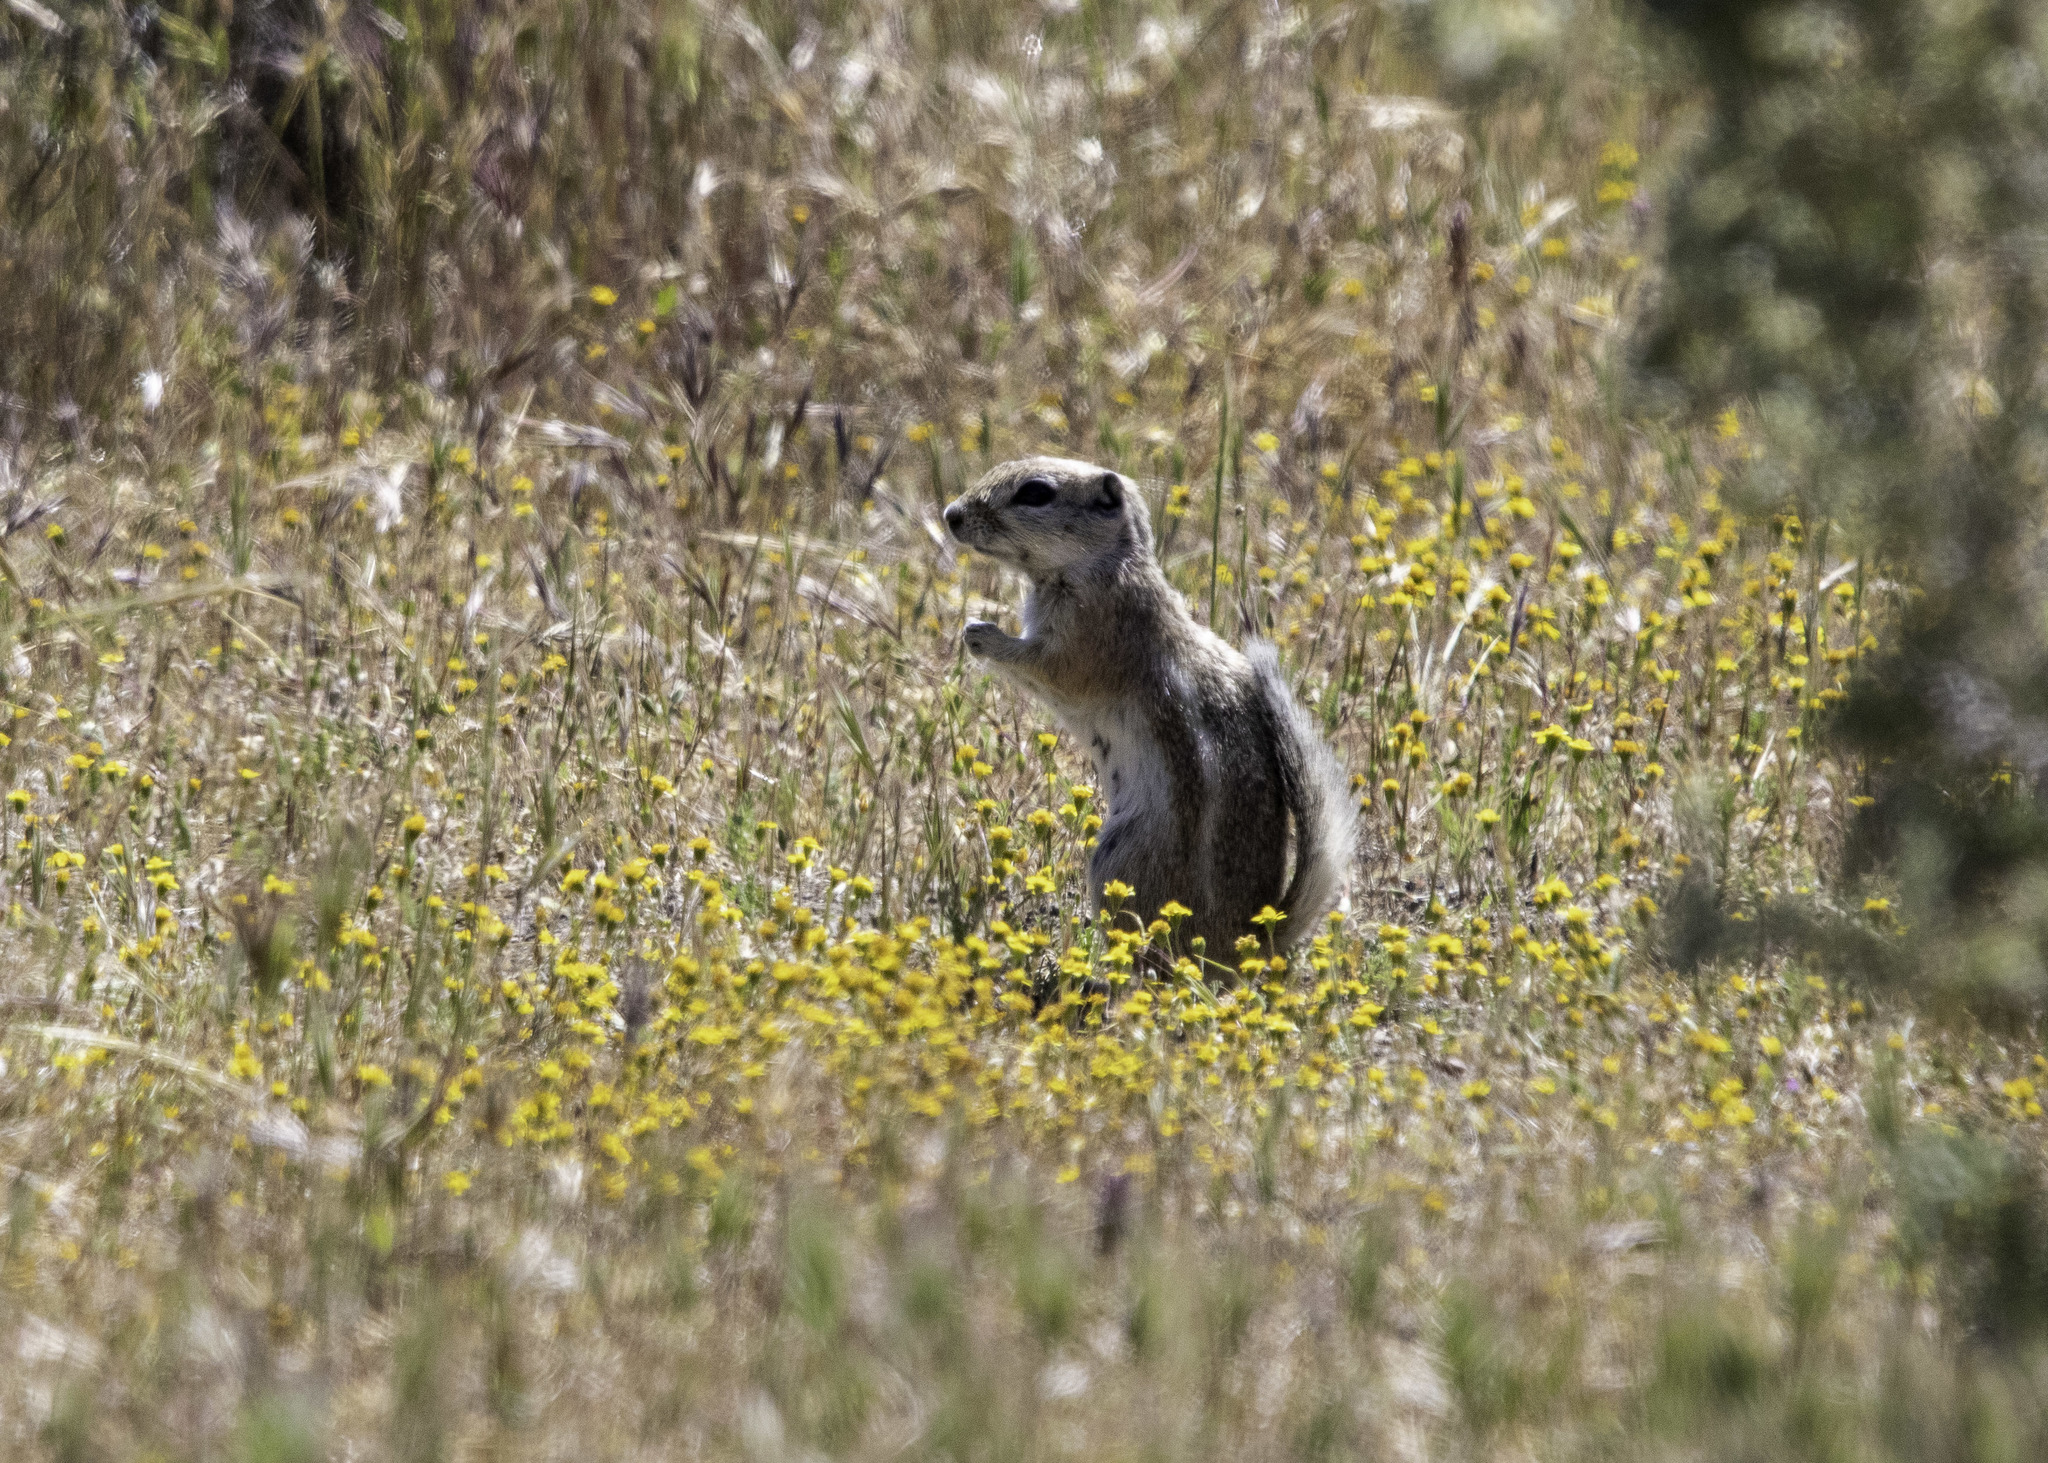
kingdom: Animalia
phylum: Chordata
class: Mammalia
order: Rodentia
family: Sciuridae
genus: Ammospermophilus
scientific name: Ammospermophilus nelsoni
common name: Nelson's antelope squirrel
